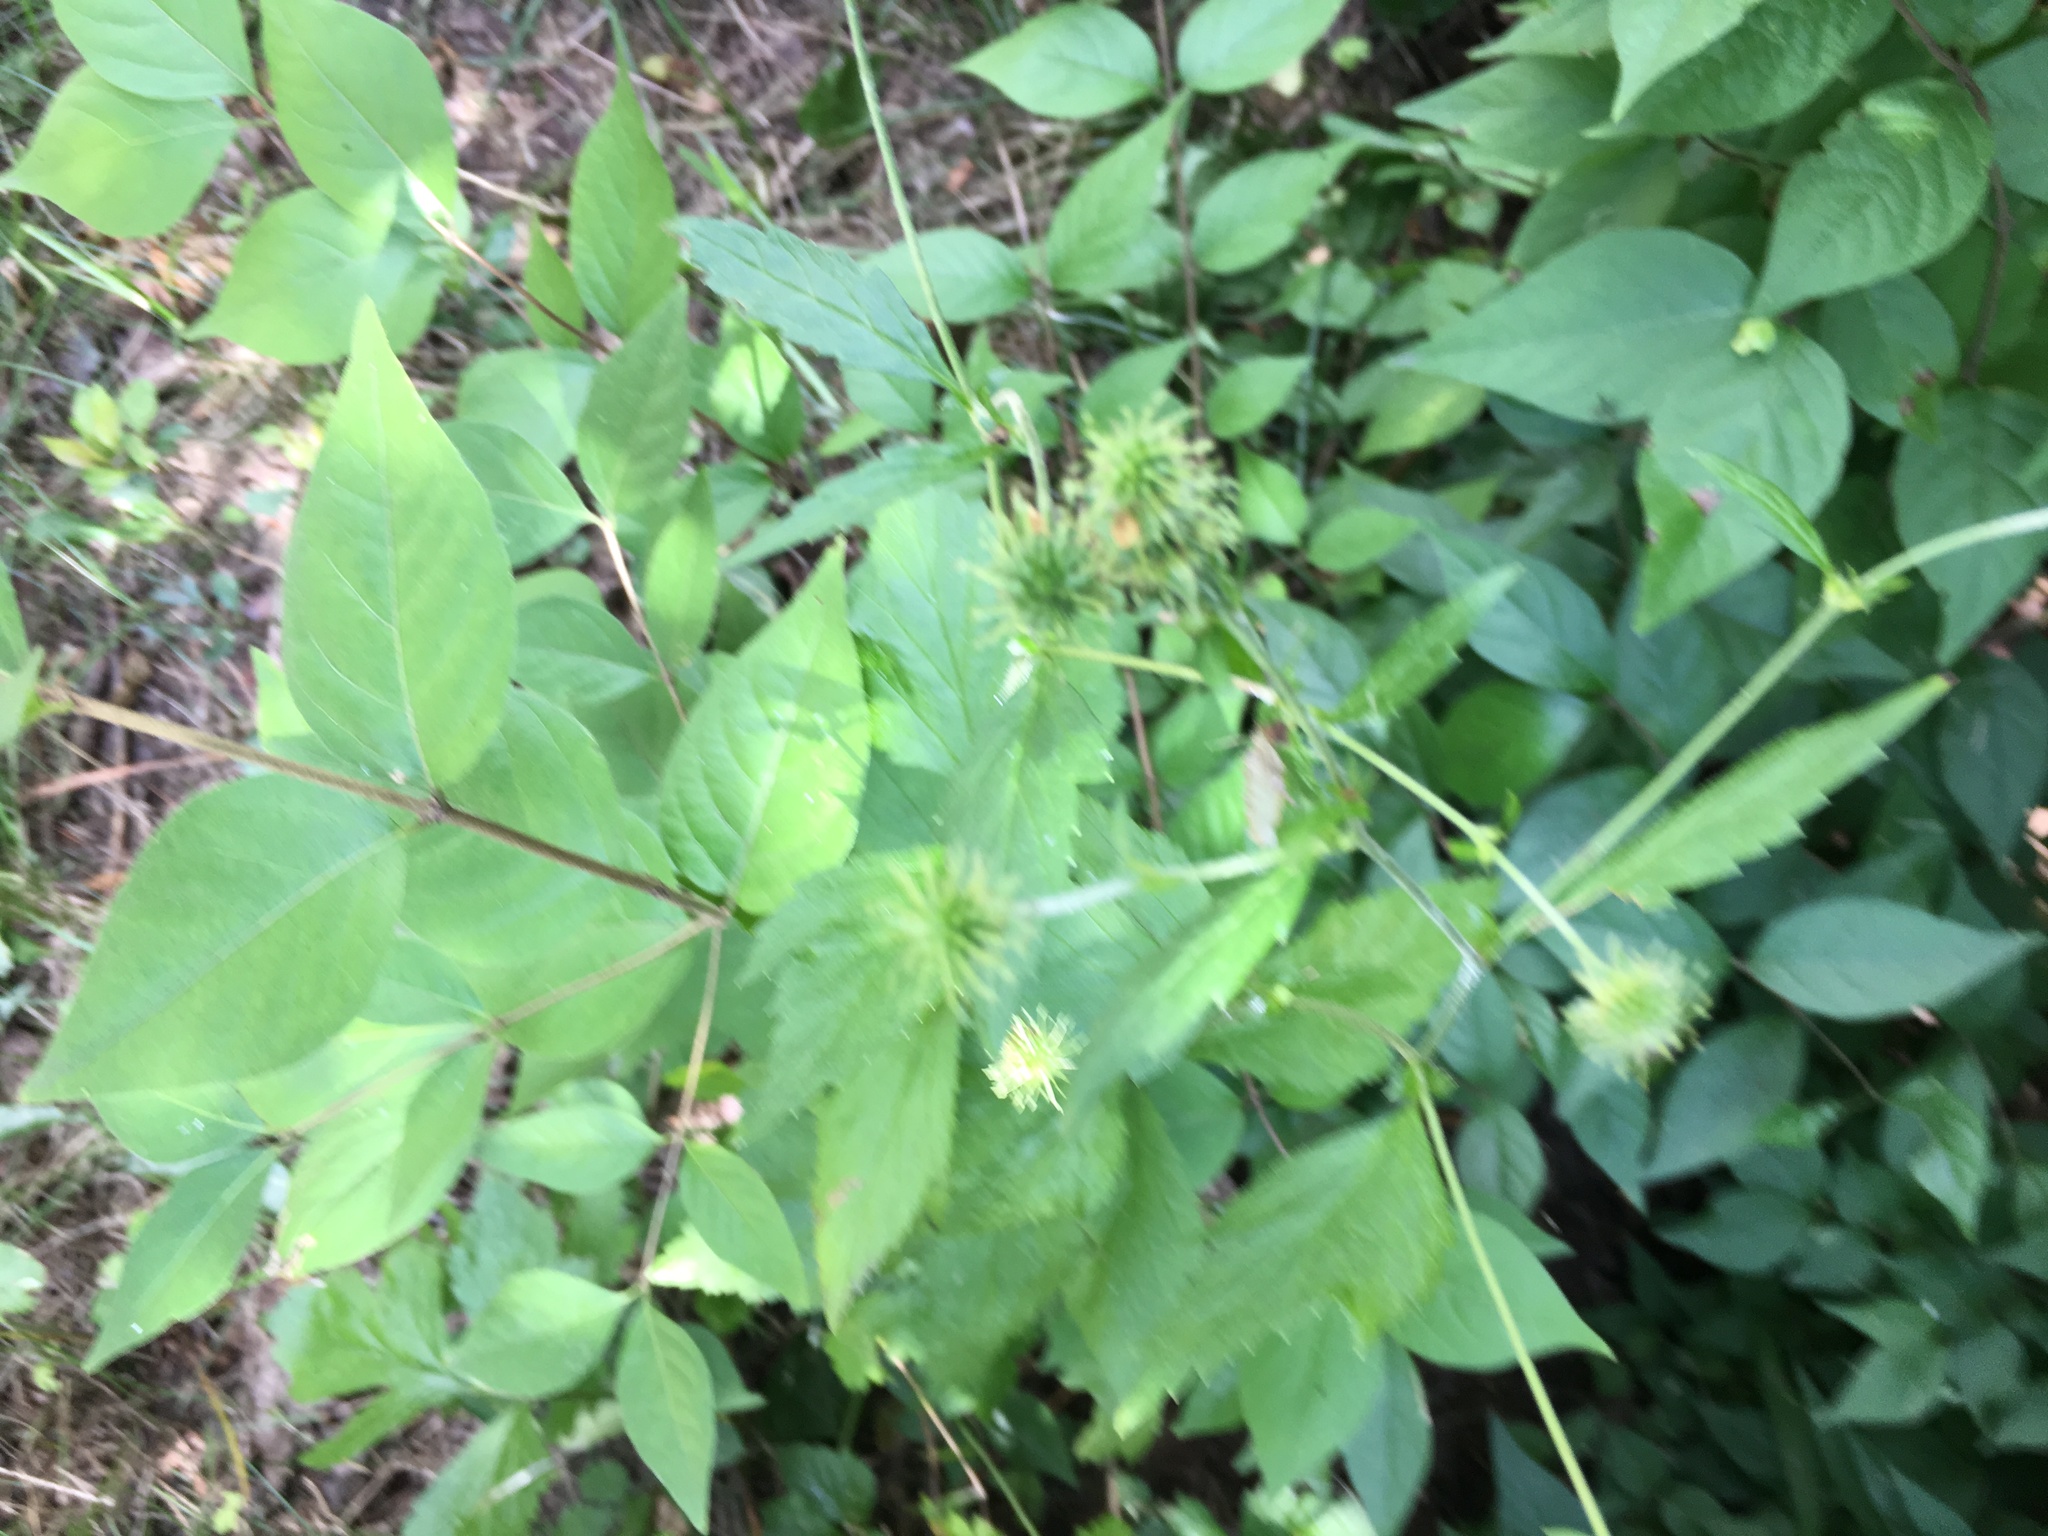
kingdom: Plantae
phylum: Tracheophyta
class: Magnoliopsida
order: Rosales
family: Rosaceae
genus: Geum
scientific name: Geum canadense
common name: White avens
